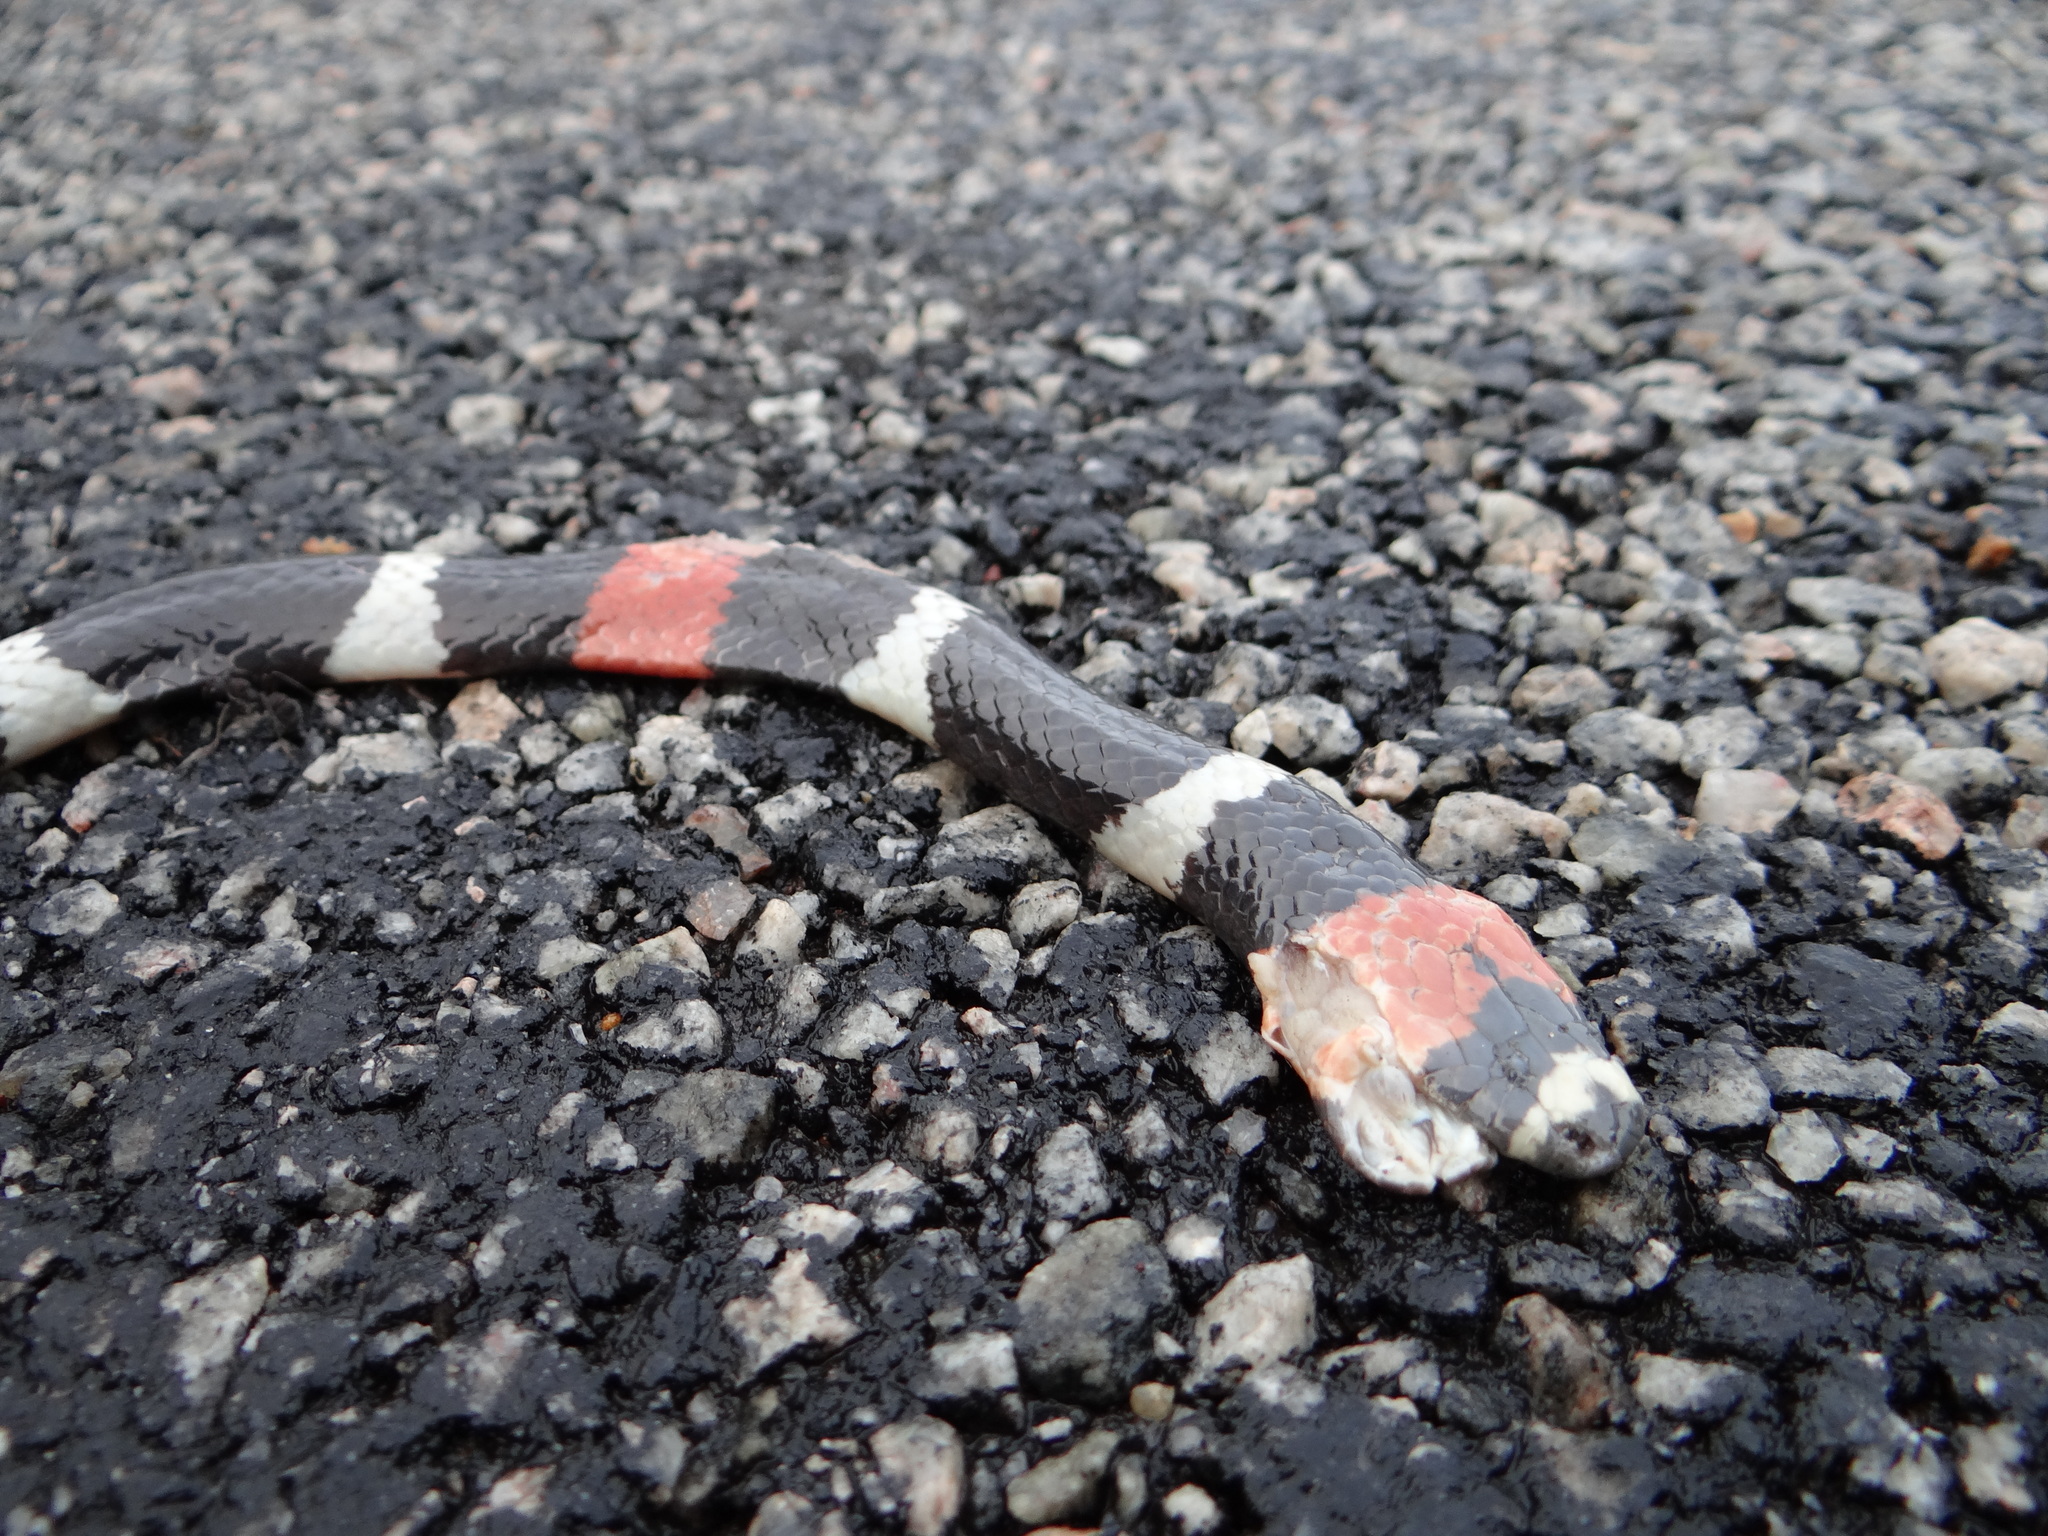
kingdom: Animalia
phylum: Chordata
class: Squamata
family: Elapidae
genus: Micrurus
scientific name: Micrurus lemniscatus
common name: South american coral snake
